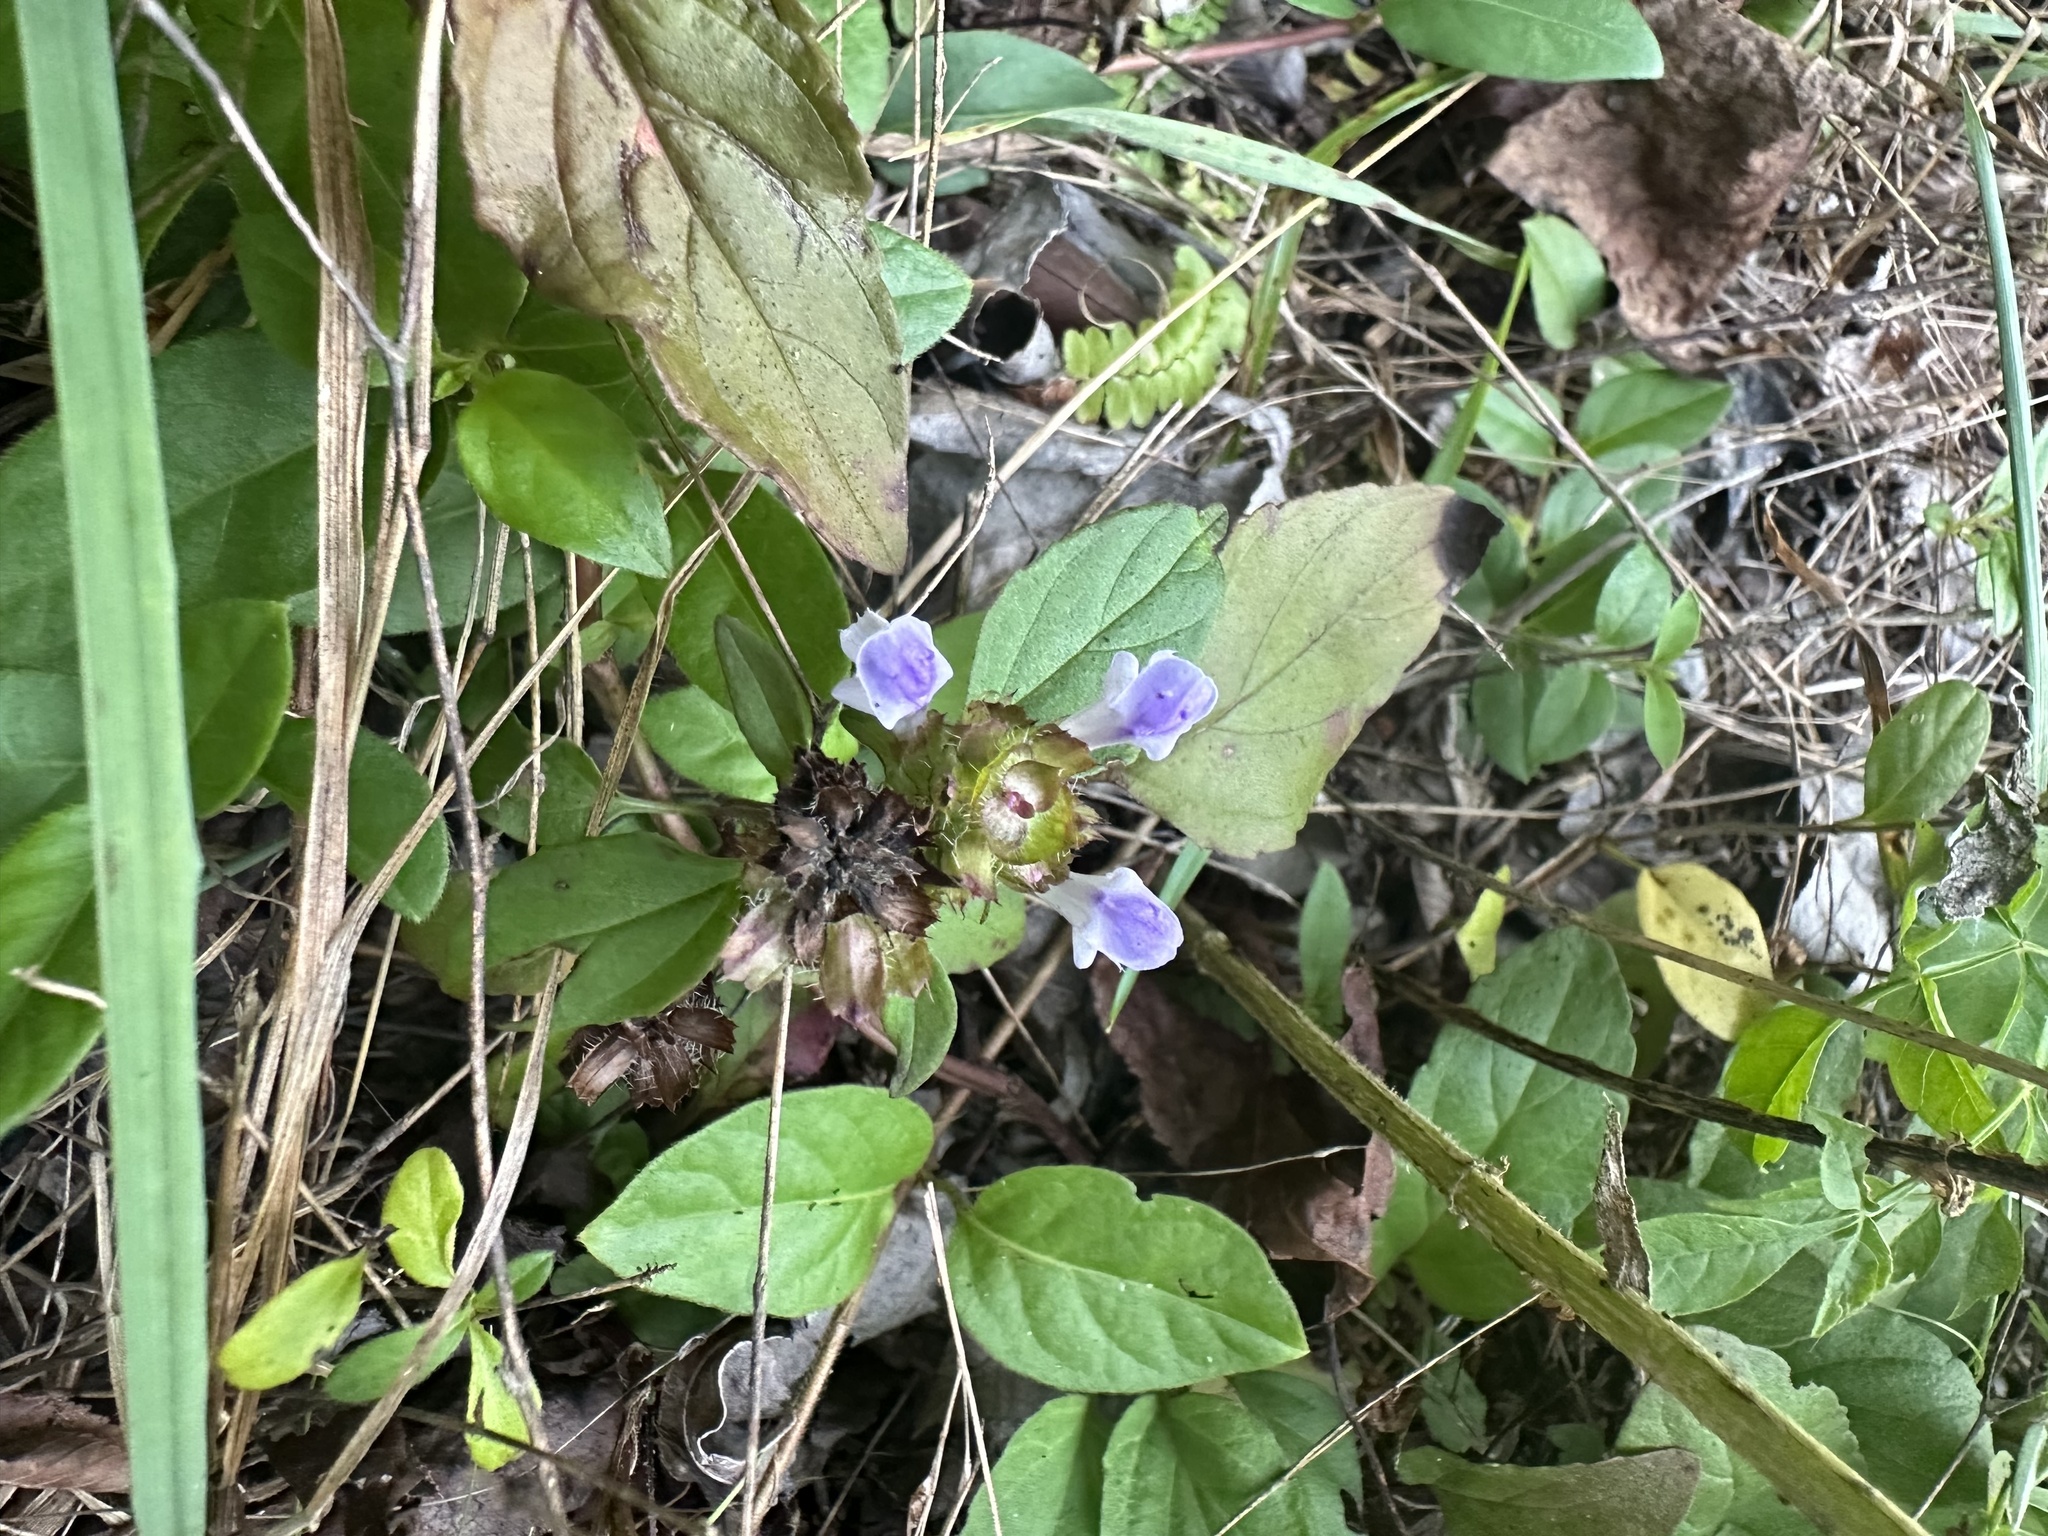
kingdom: Plantae
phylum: Tracheophyta
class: Magnoliopsida
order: Lamiales
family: Lamiaceae
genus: Prunella
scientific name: Prunella vulgaris
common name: Heal-all
